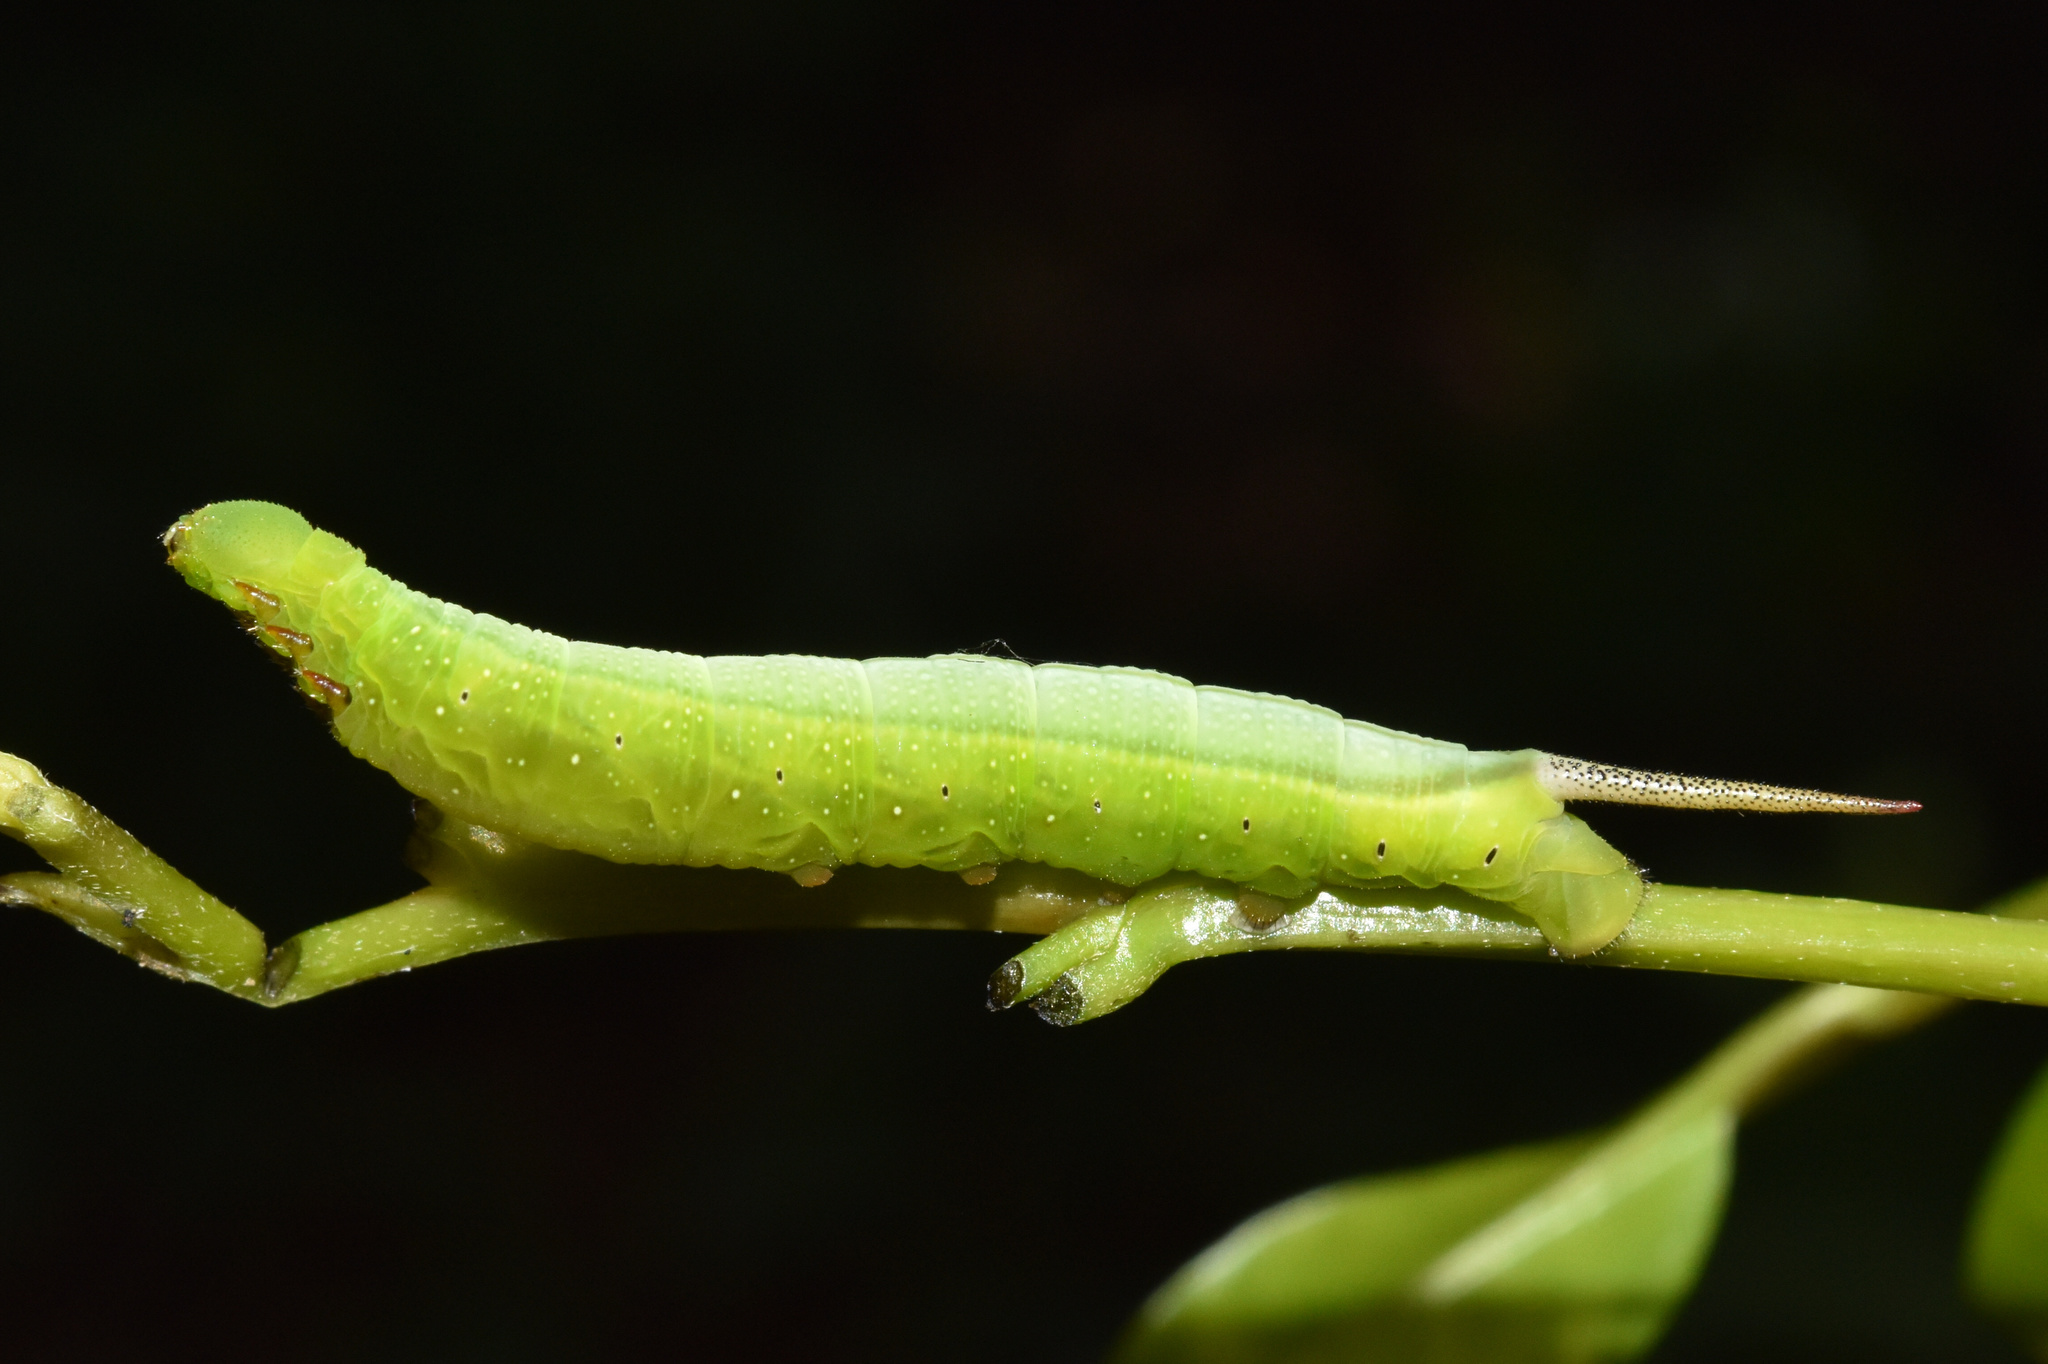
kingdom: Animalia
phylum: Arthropoda
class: Insecta
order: Lepidoptera
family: Sphingidae
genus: Nephele
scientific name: Nephele comma
